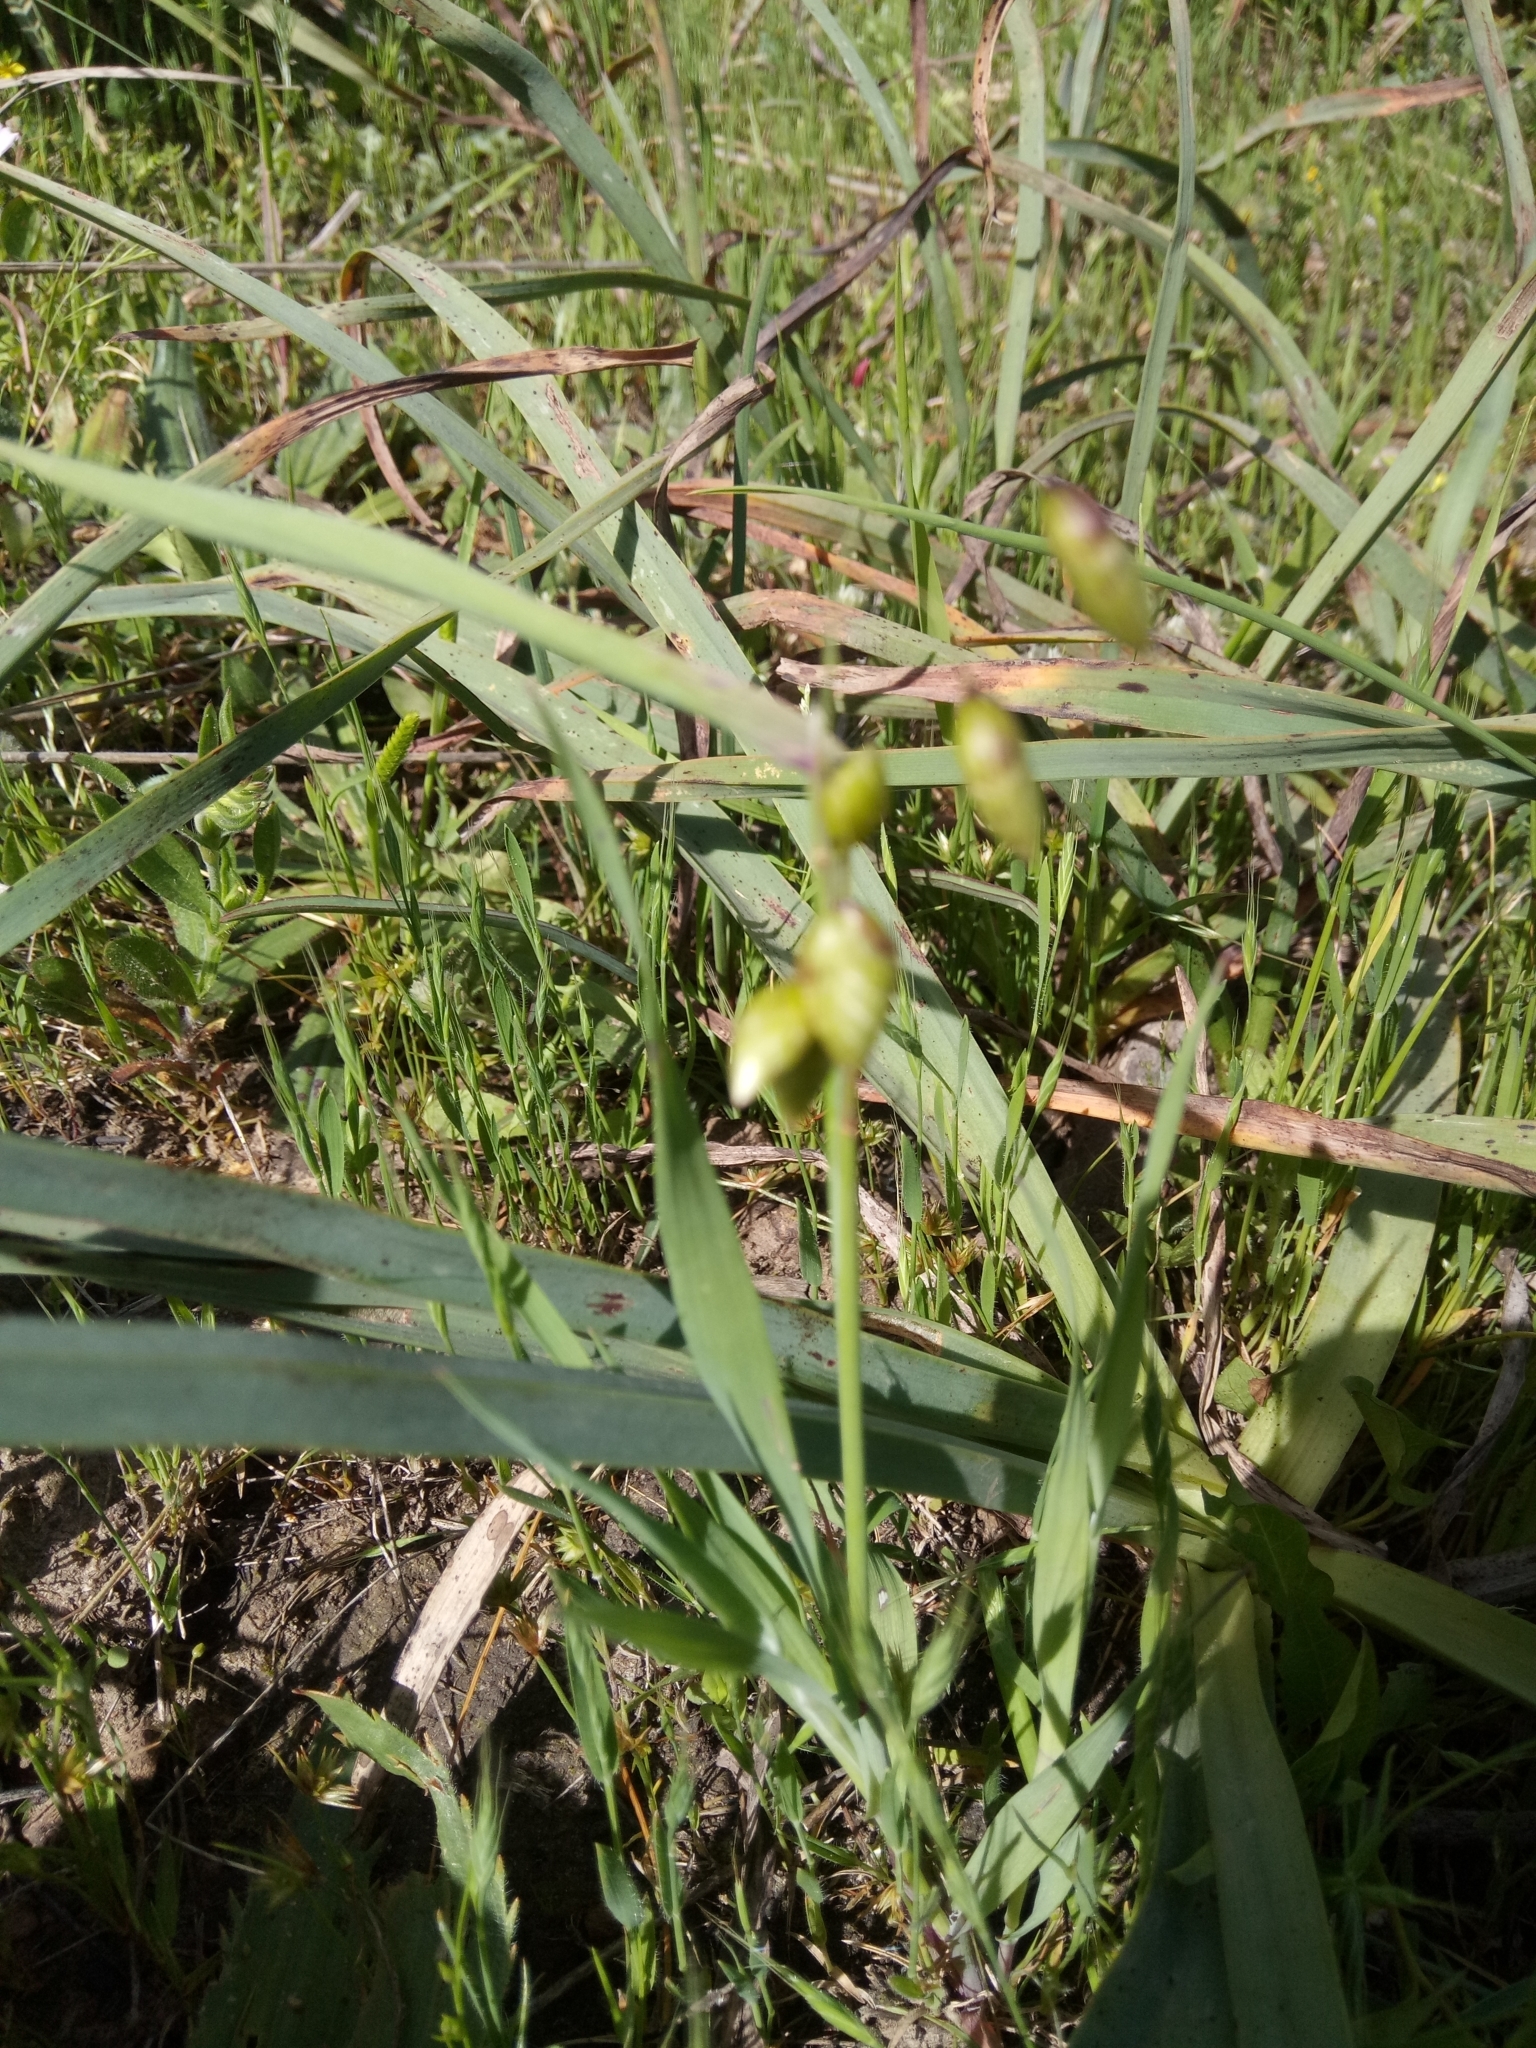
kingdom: Plantae
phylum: Tracheophyta
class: Liliopsida
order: Poales
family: Poaceae
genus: Briza
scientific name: Briza maxima
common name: Big quakinggrass
